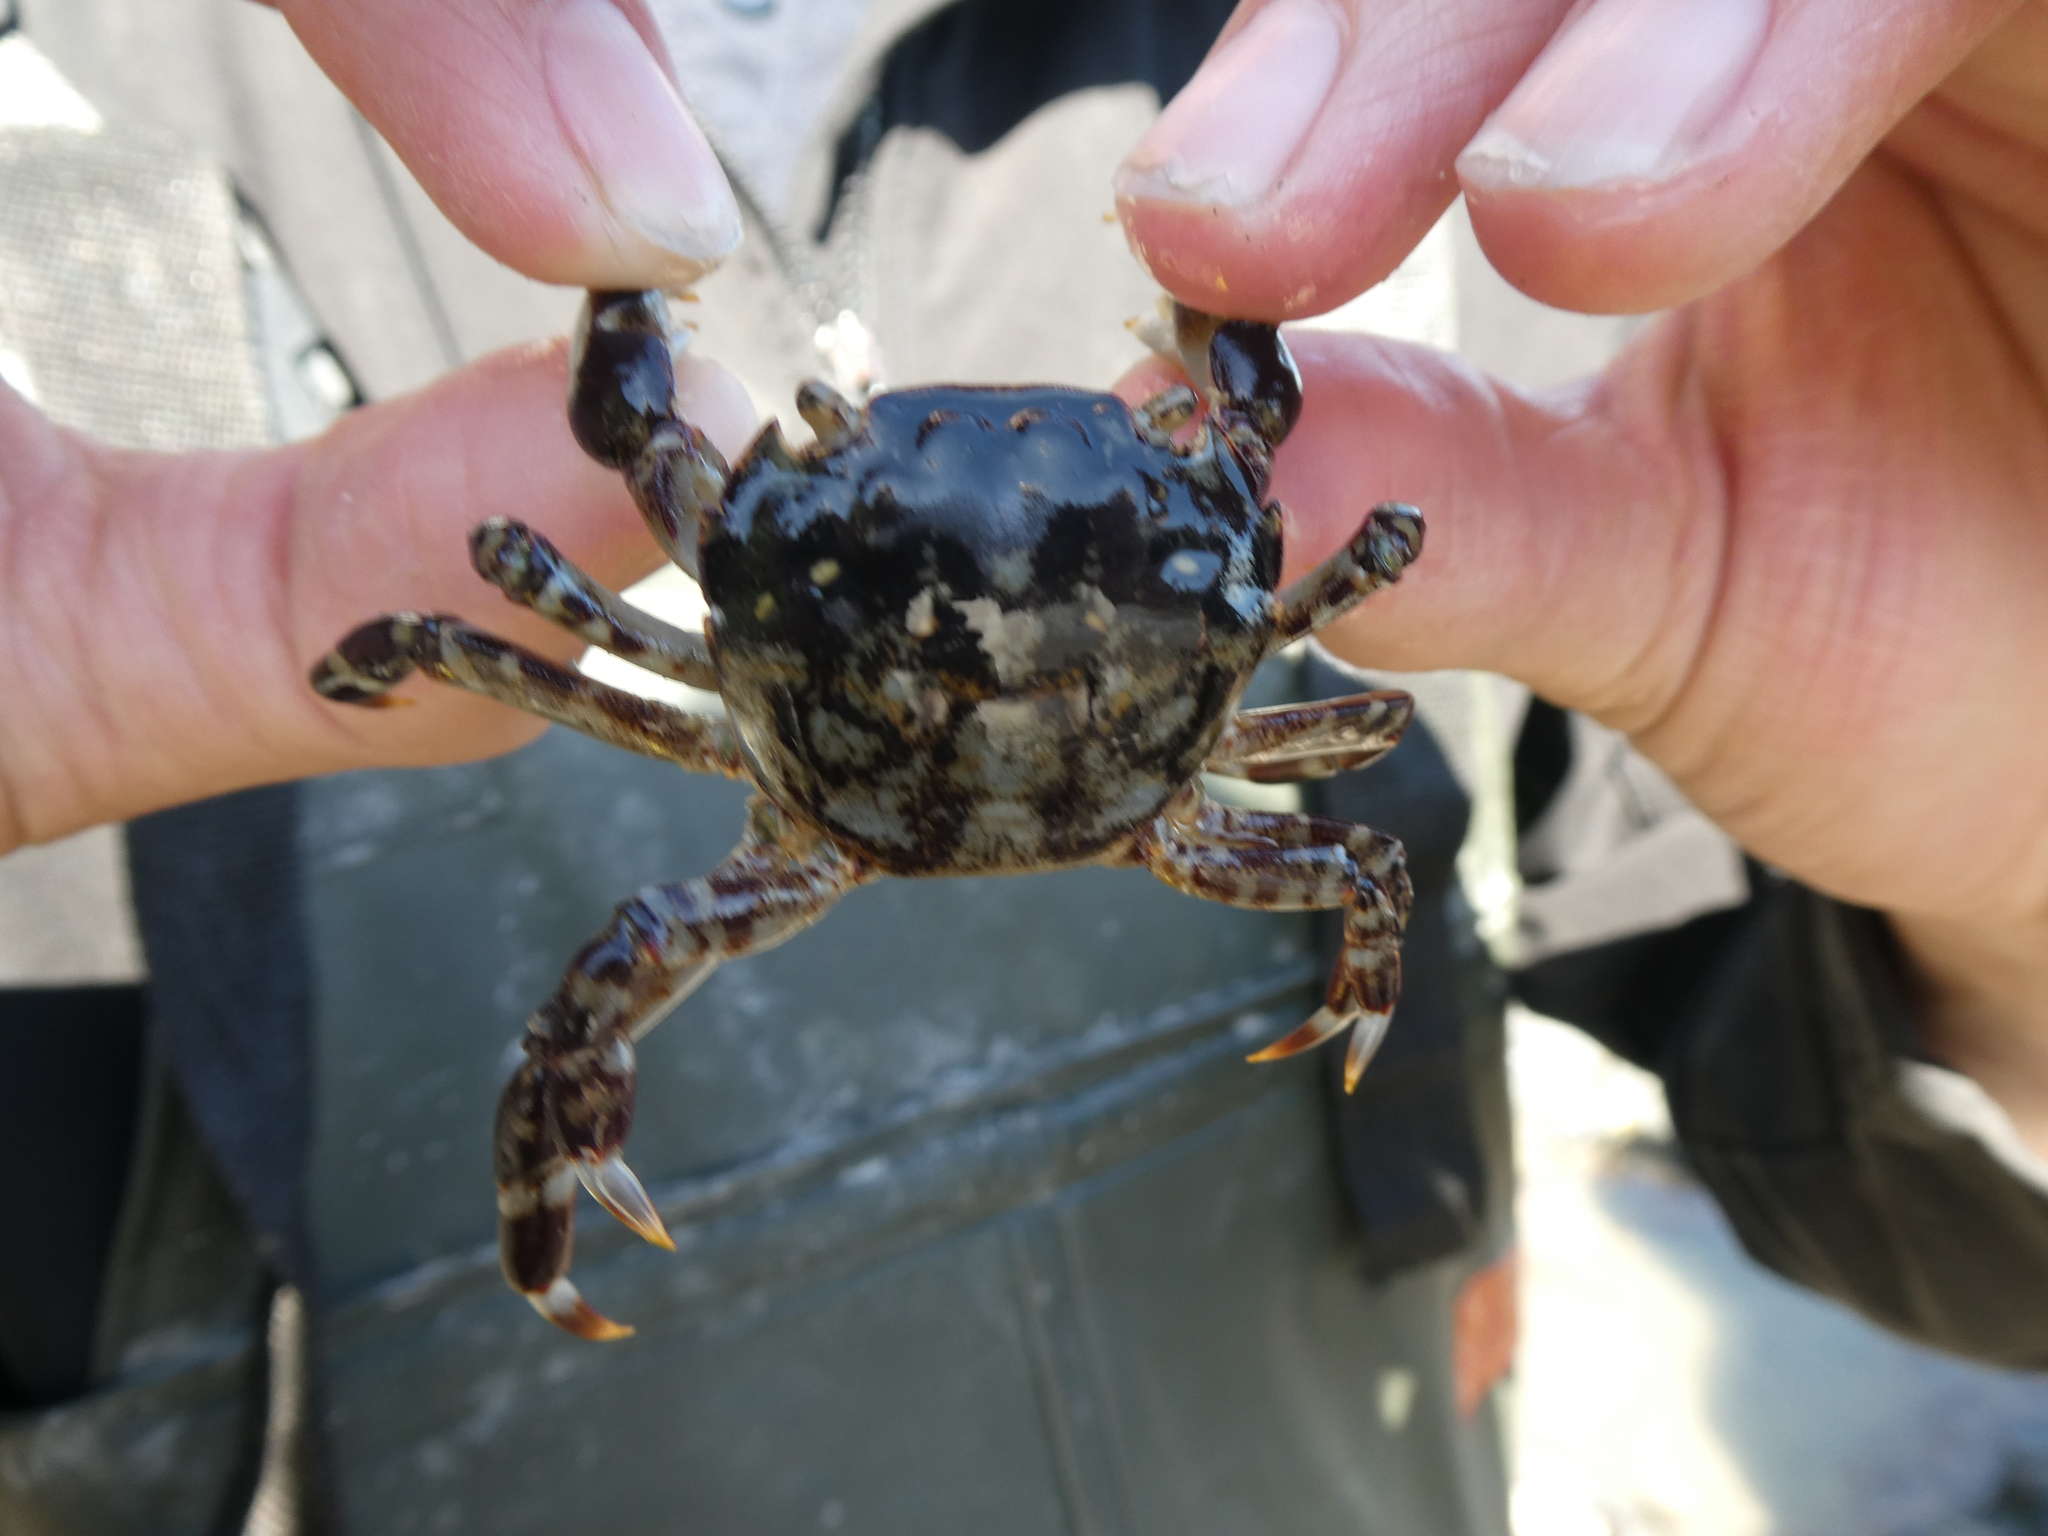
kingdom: Animalia
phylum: Arthropoda
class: Malacostraca
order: Decapoda
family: Varunidae
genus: Hemigrapsus
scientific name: Hemigrapsus sexdentatus
